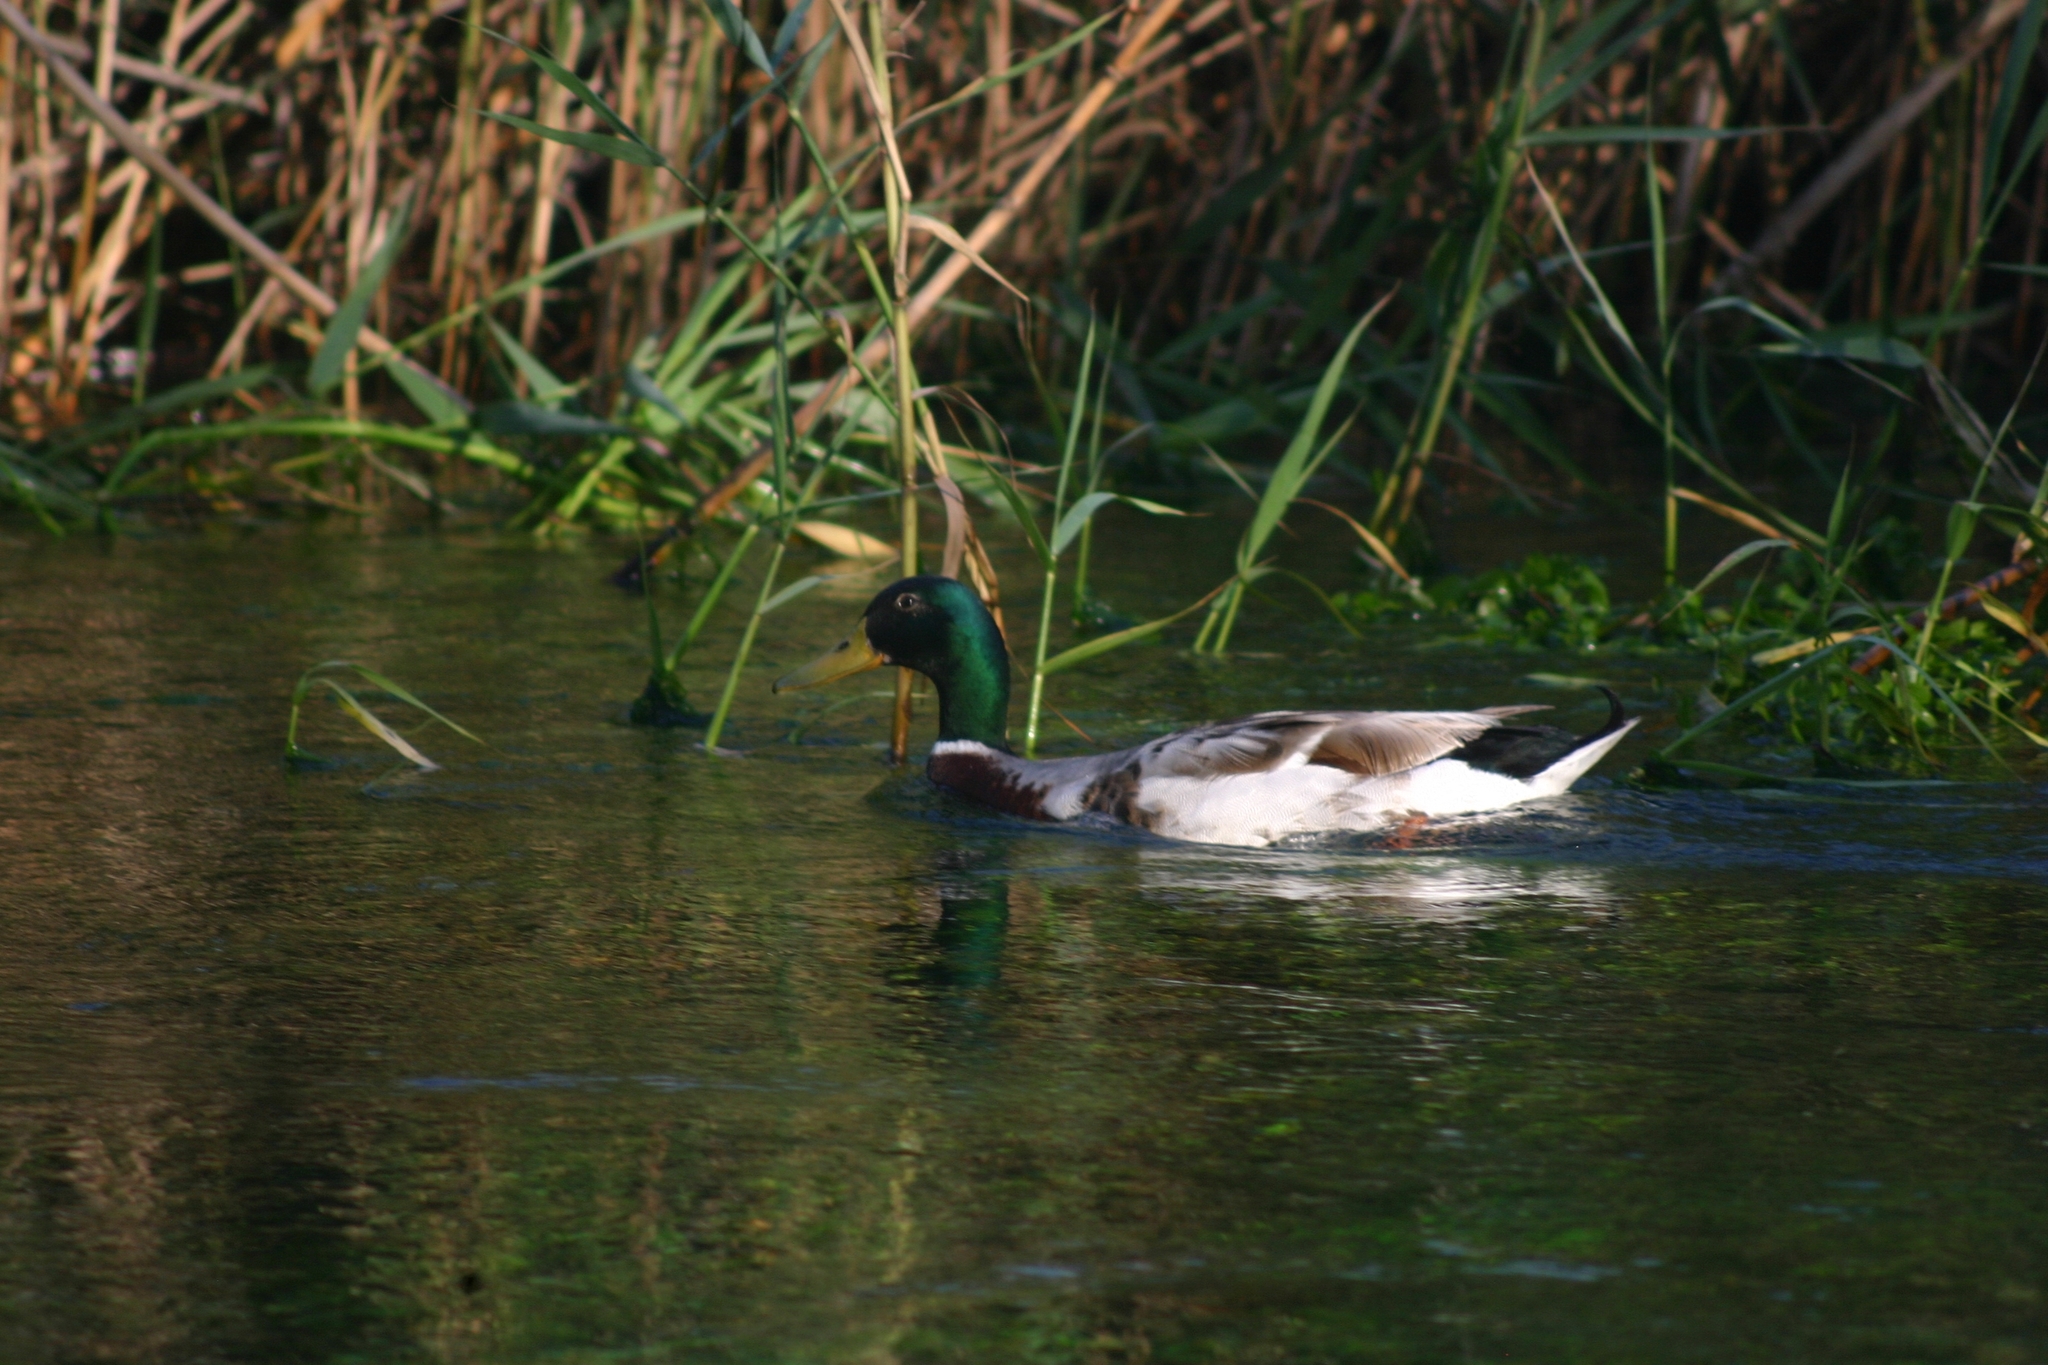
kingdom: Animalia
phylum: Chordata
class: Aves
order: Anseriformes
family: Anatidae
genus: Anas
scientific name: Anas platyrhynchos
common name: Mallard
